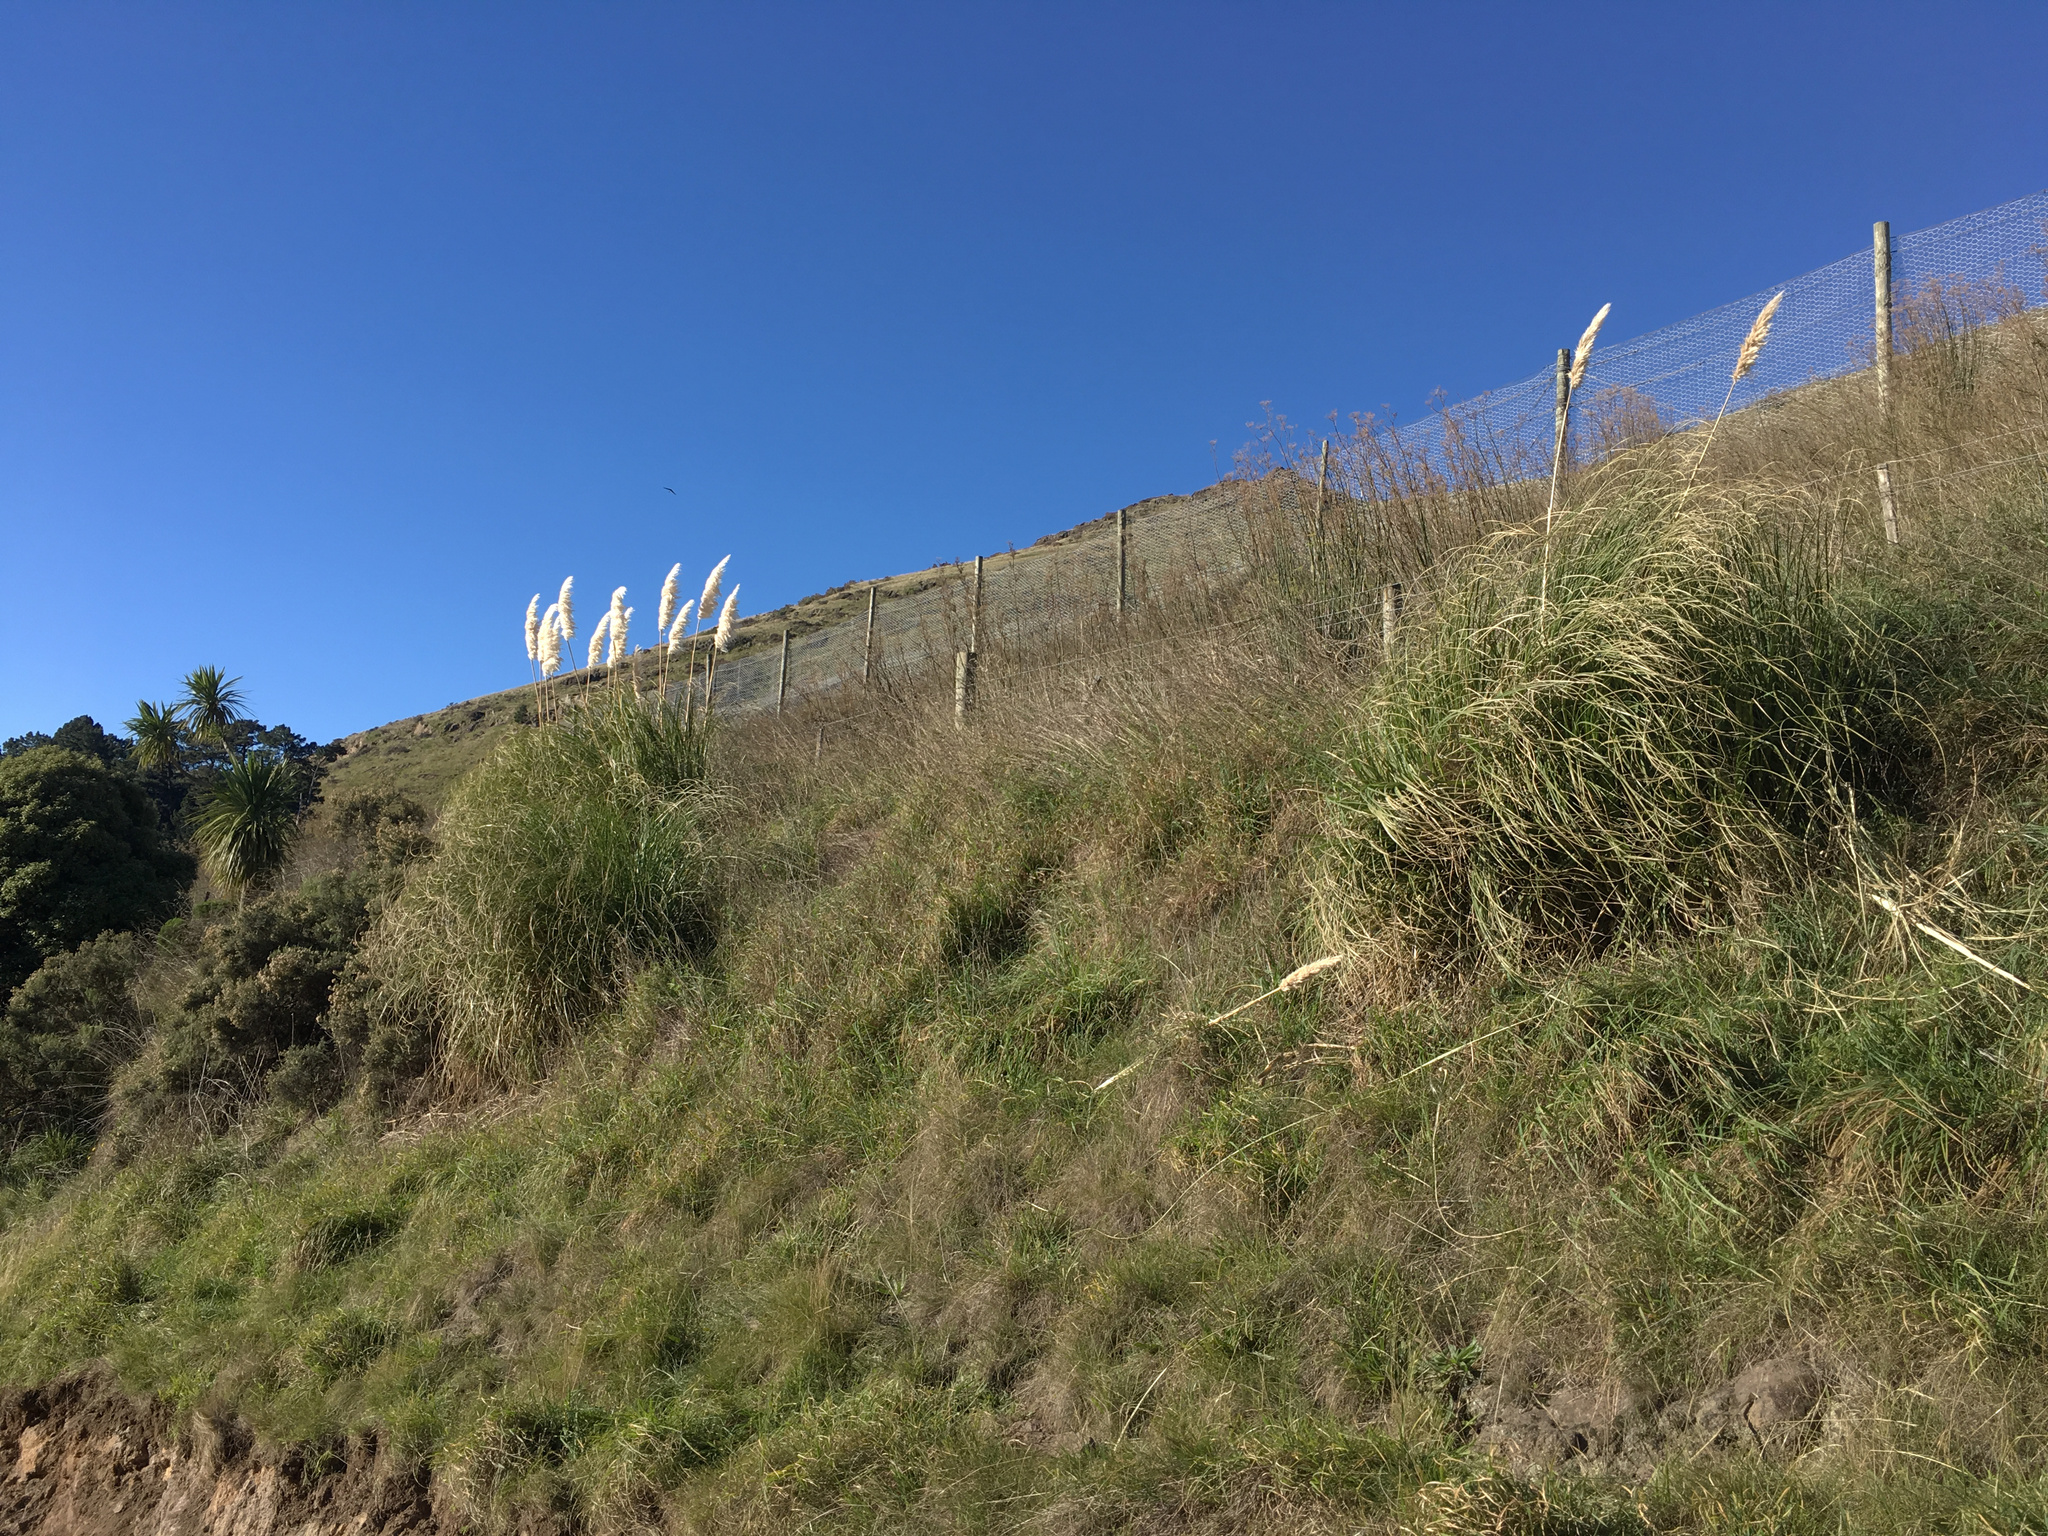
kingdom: Plantae
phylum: Tracheophyta
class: Liliopsida
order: Poales
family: Poaceae
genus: Cortaderia
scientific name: Cortaderia selloana
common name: Uruguayan pampas grass
